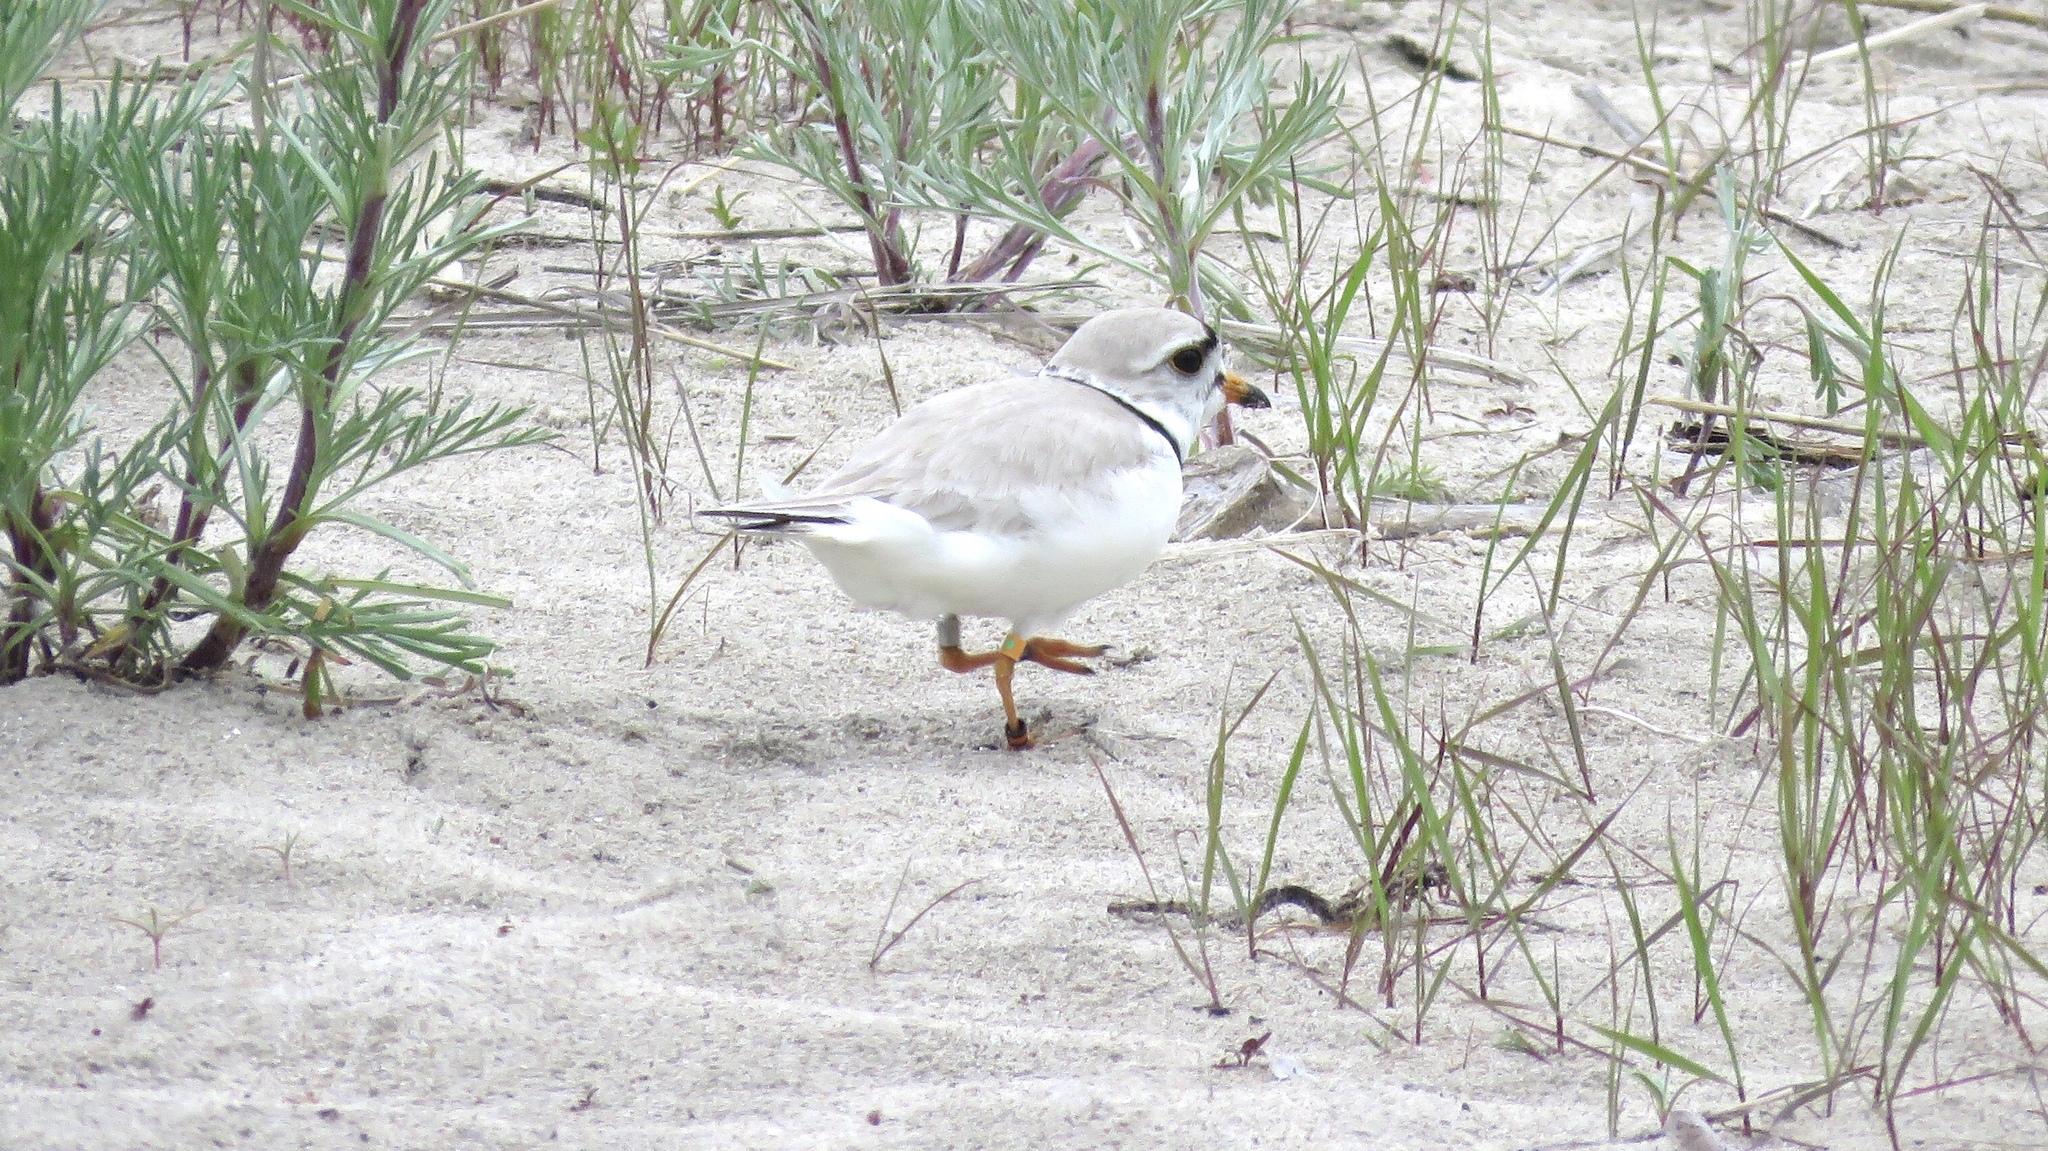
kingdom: Animalia
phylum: Chordata
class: Aves
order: Charadriiformes
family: Charadriidae
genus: Charadrius
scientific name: Charadrius melodus
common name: Piping plover
